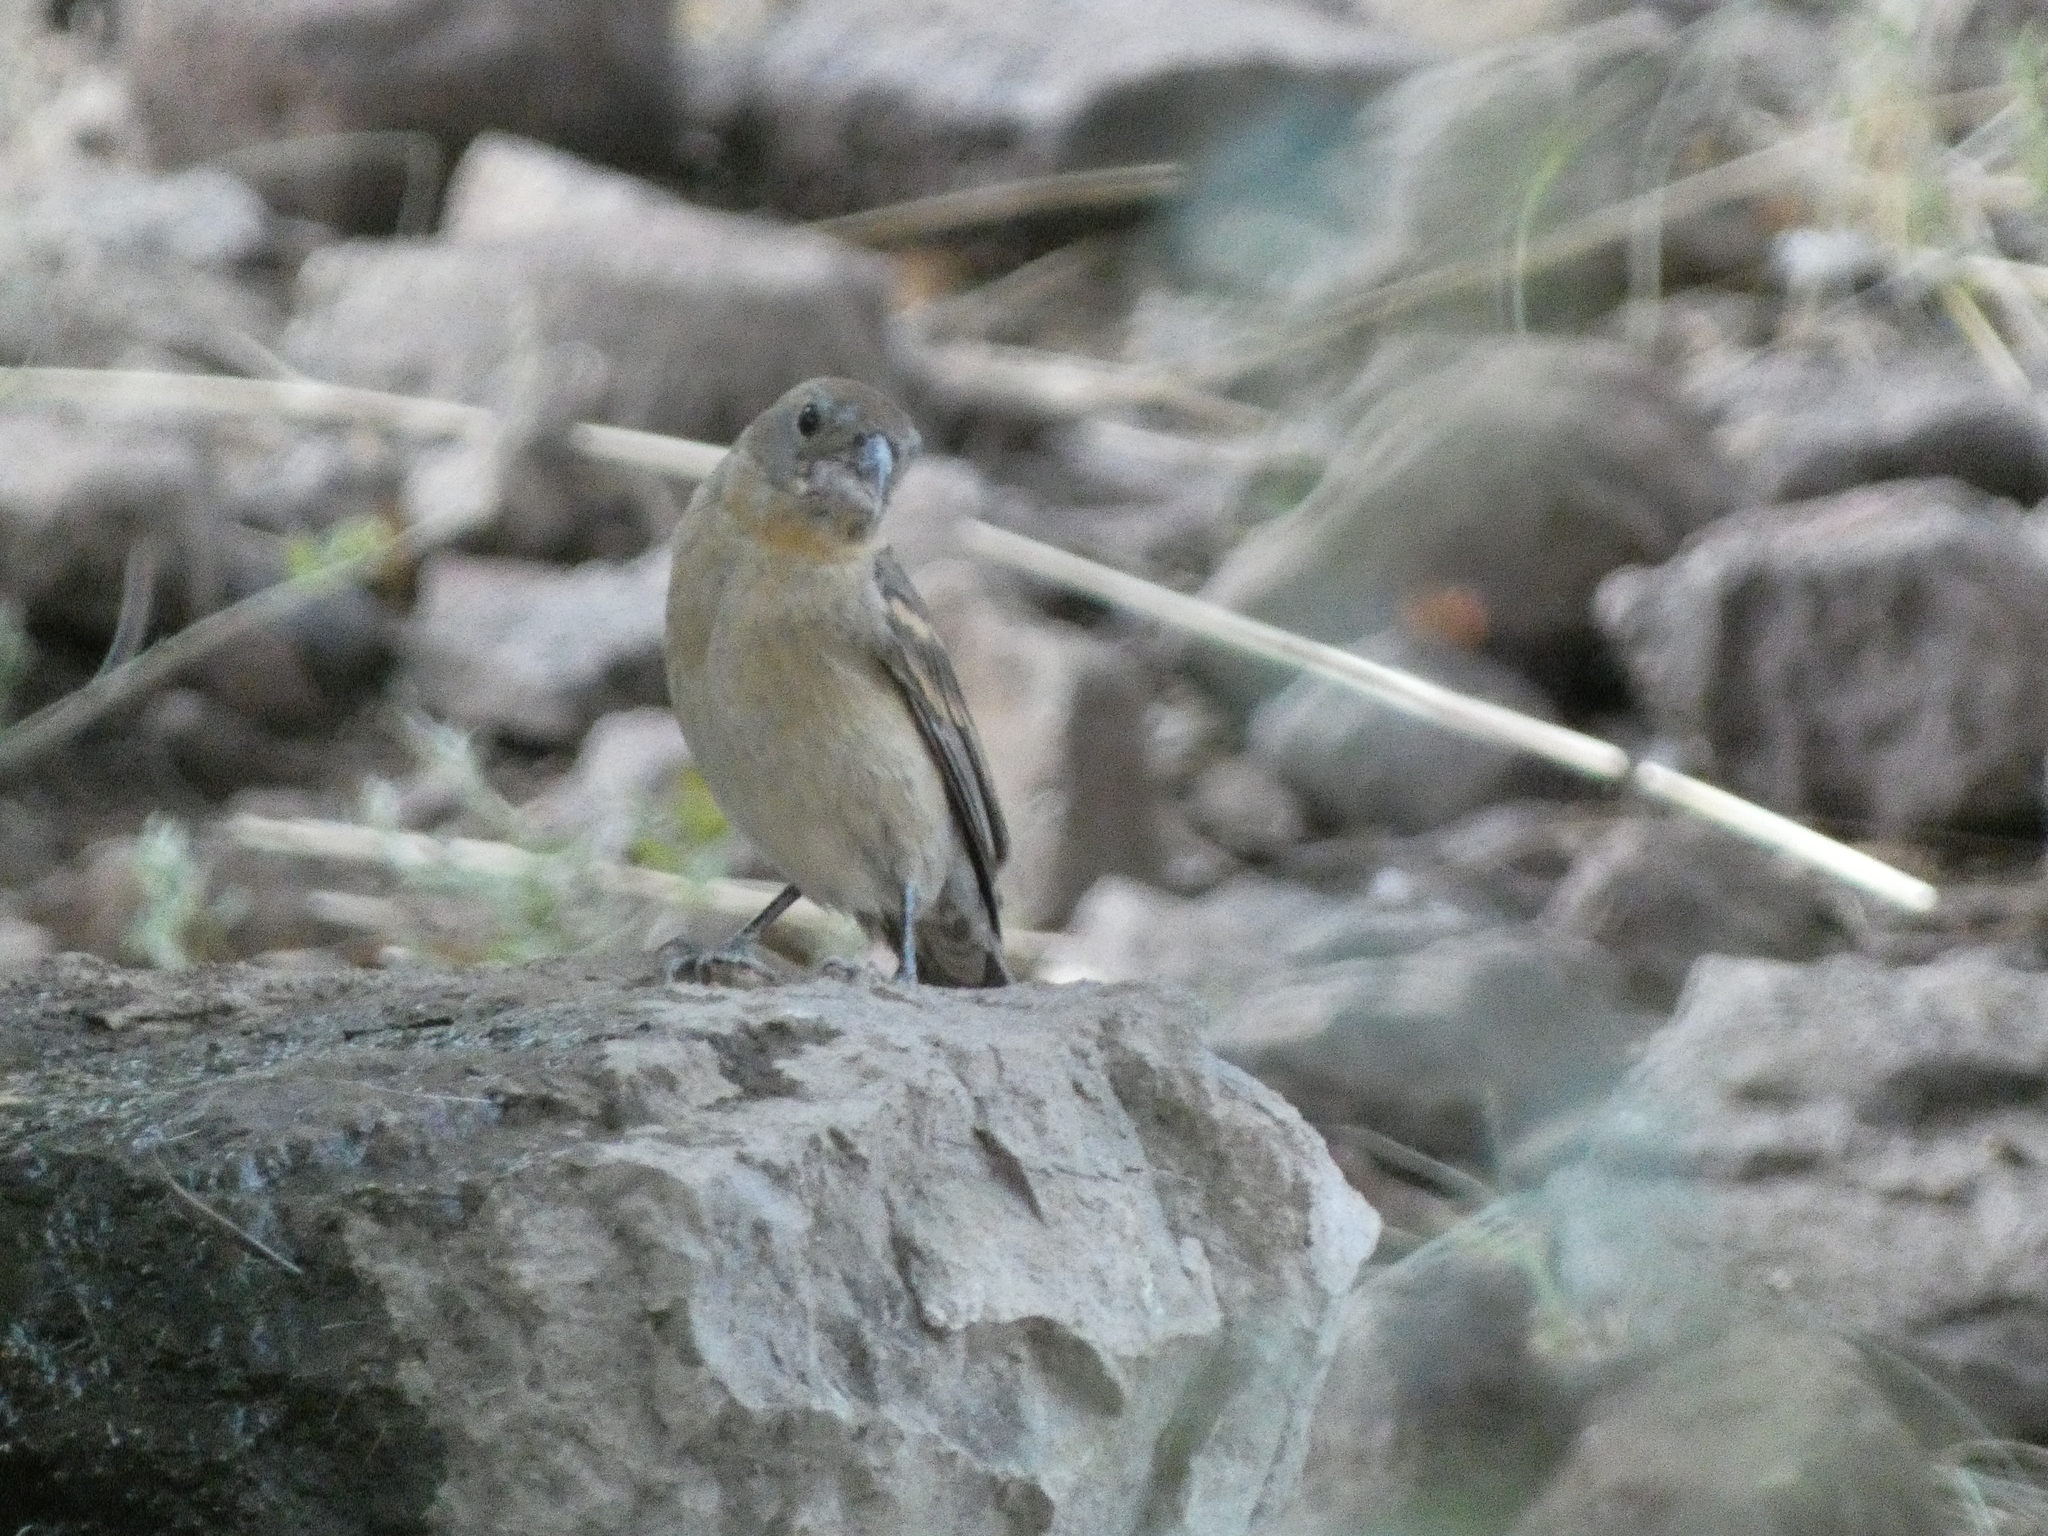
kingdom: Animalia
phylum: Chordata
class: Aves
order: Passeriformes
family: Cardinalidae
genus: Passerina
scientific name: Passerina caerulea
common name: Blue grosbeak
